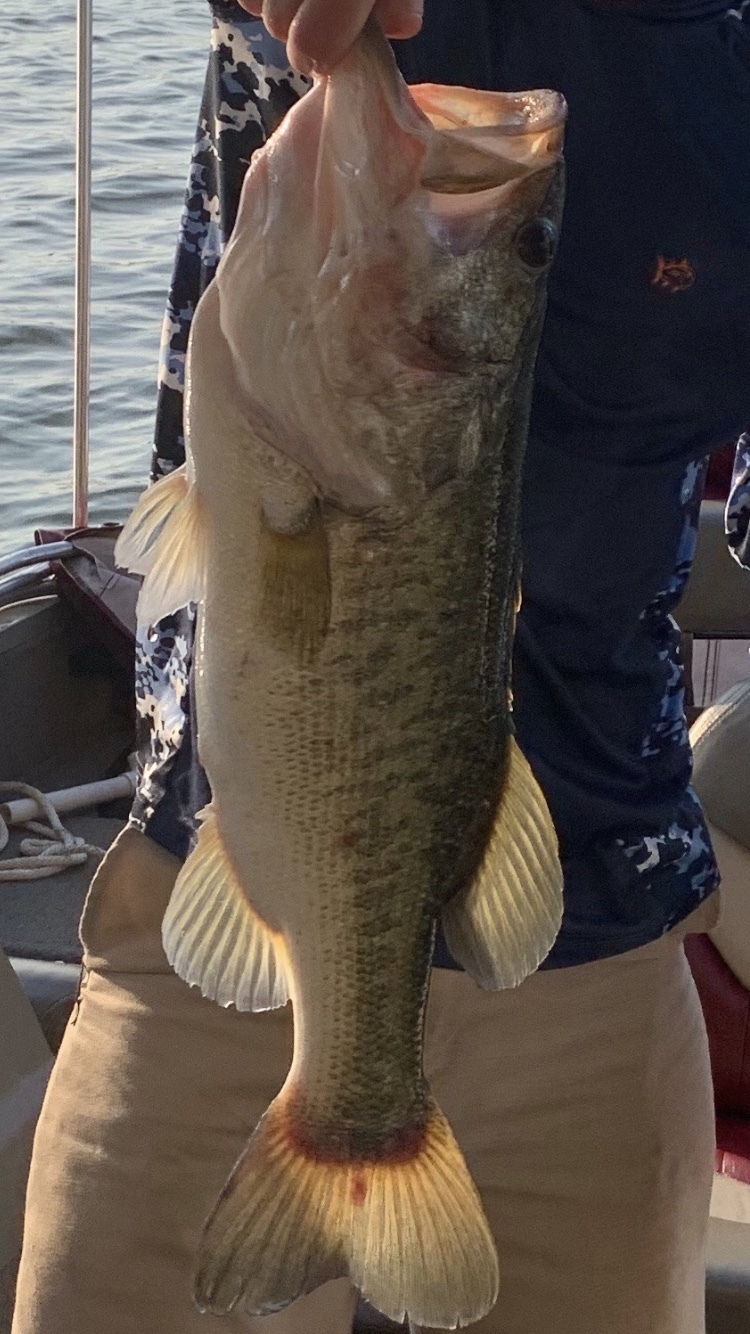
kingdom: Animalia
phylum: Chordata
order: Perciformes
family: Centrarchidae
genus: Micropterus
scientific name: Micropterus
